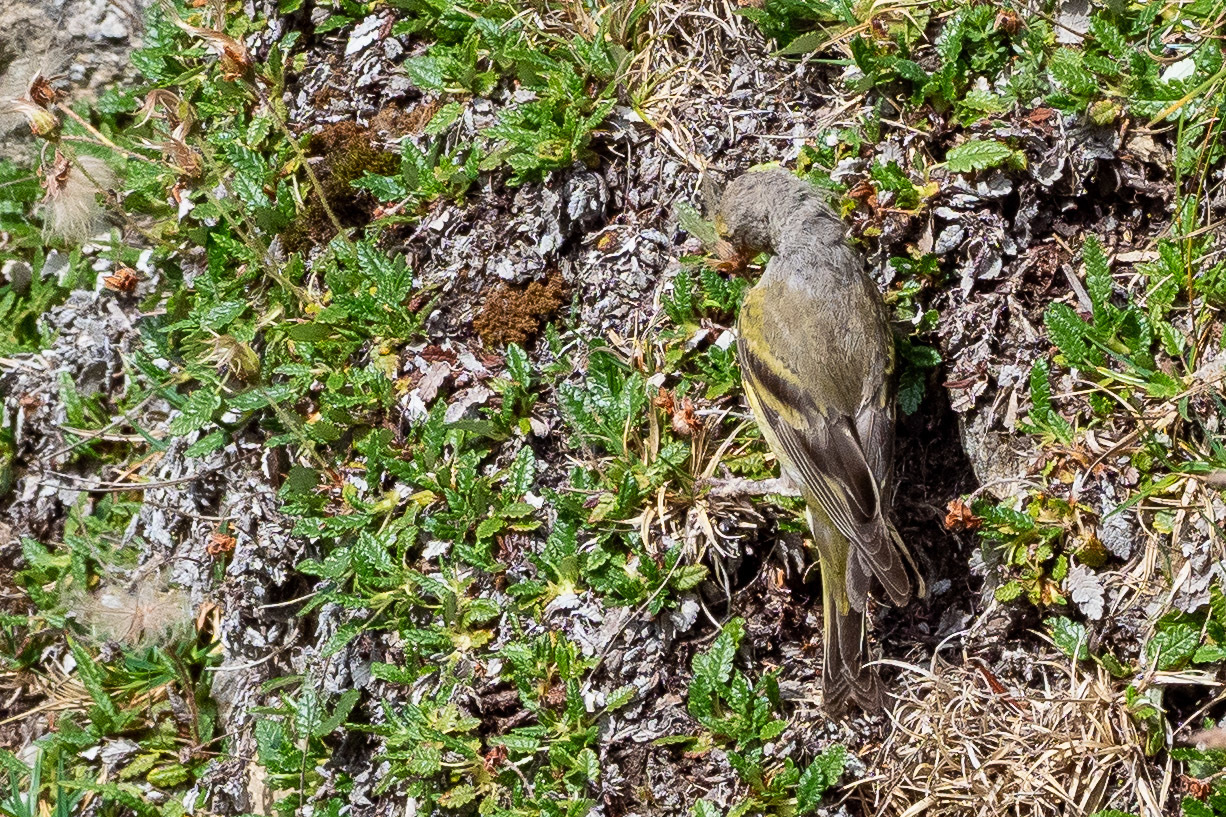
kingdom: Animalia
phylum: Chordata
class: Aves
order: Passeriformes
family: Fringillidae
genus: Carduelis
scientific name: Carduelis citrinella
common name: Citril finch
